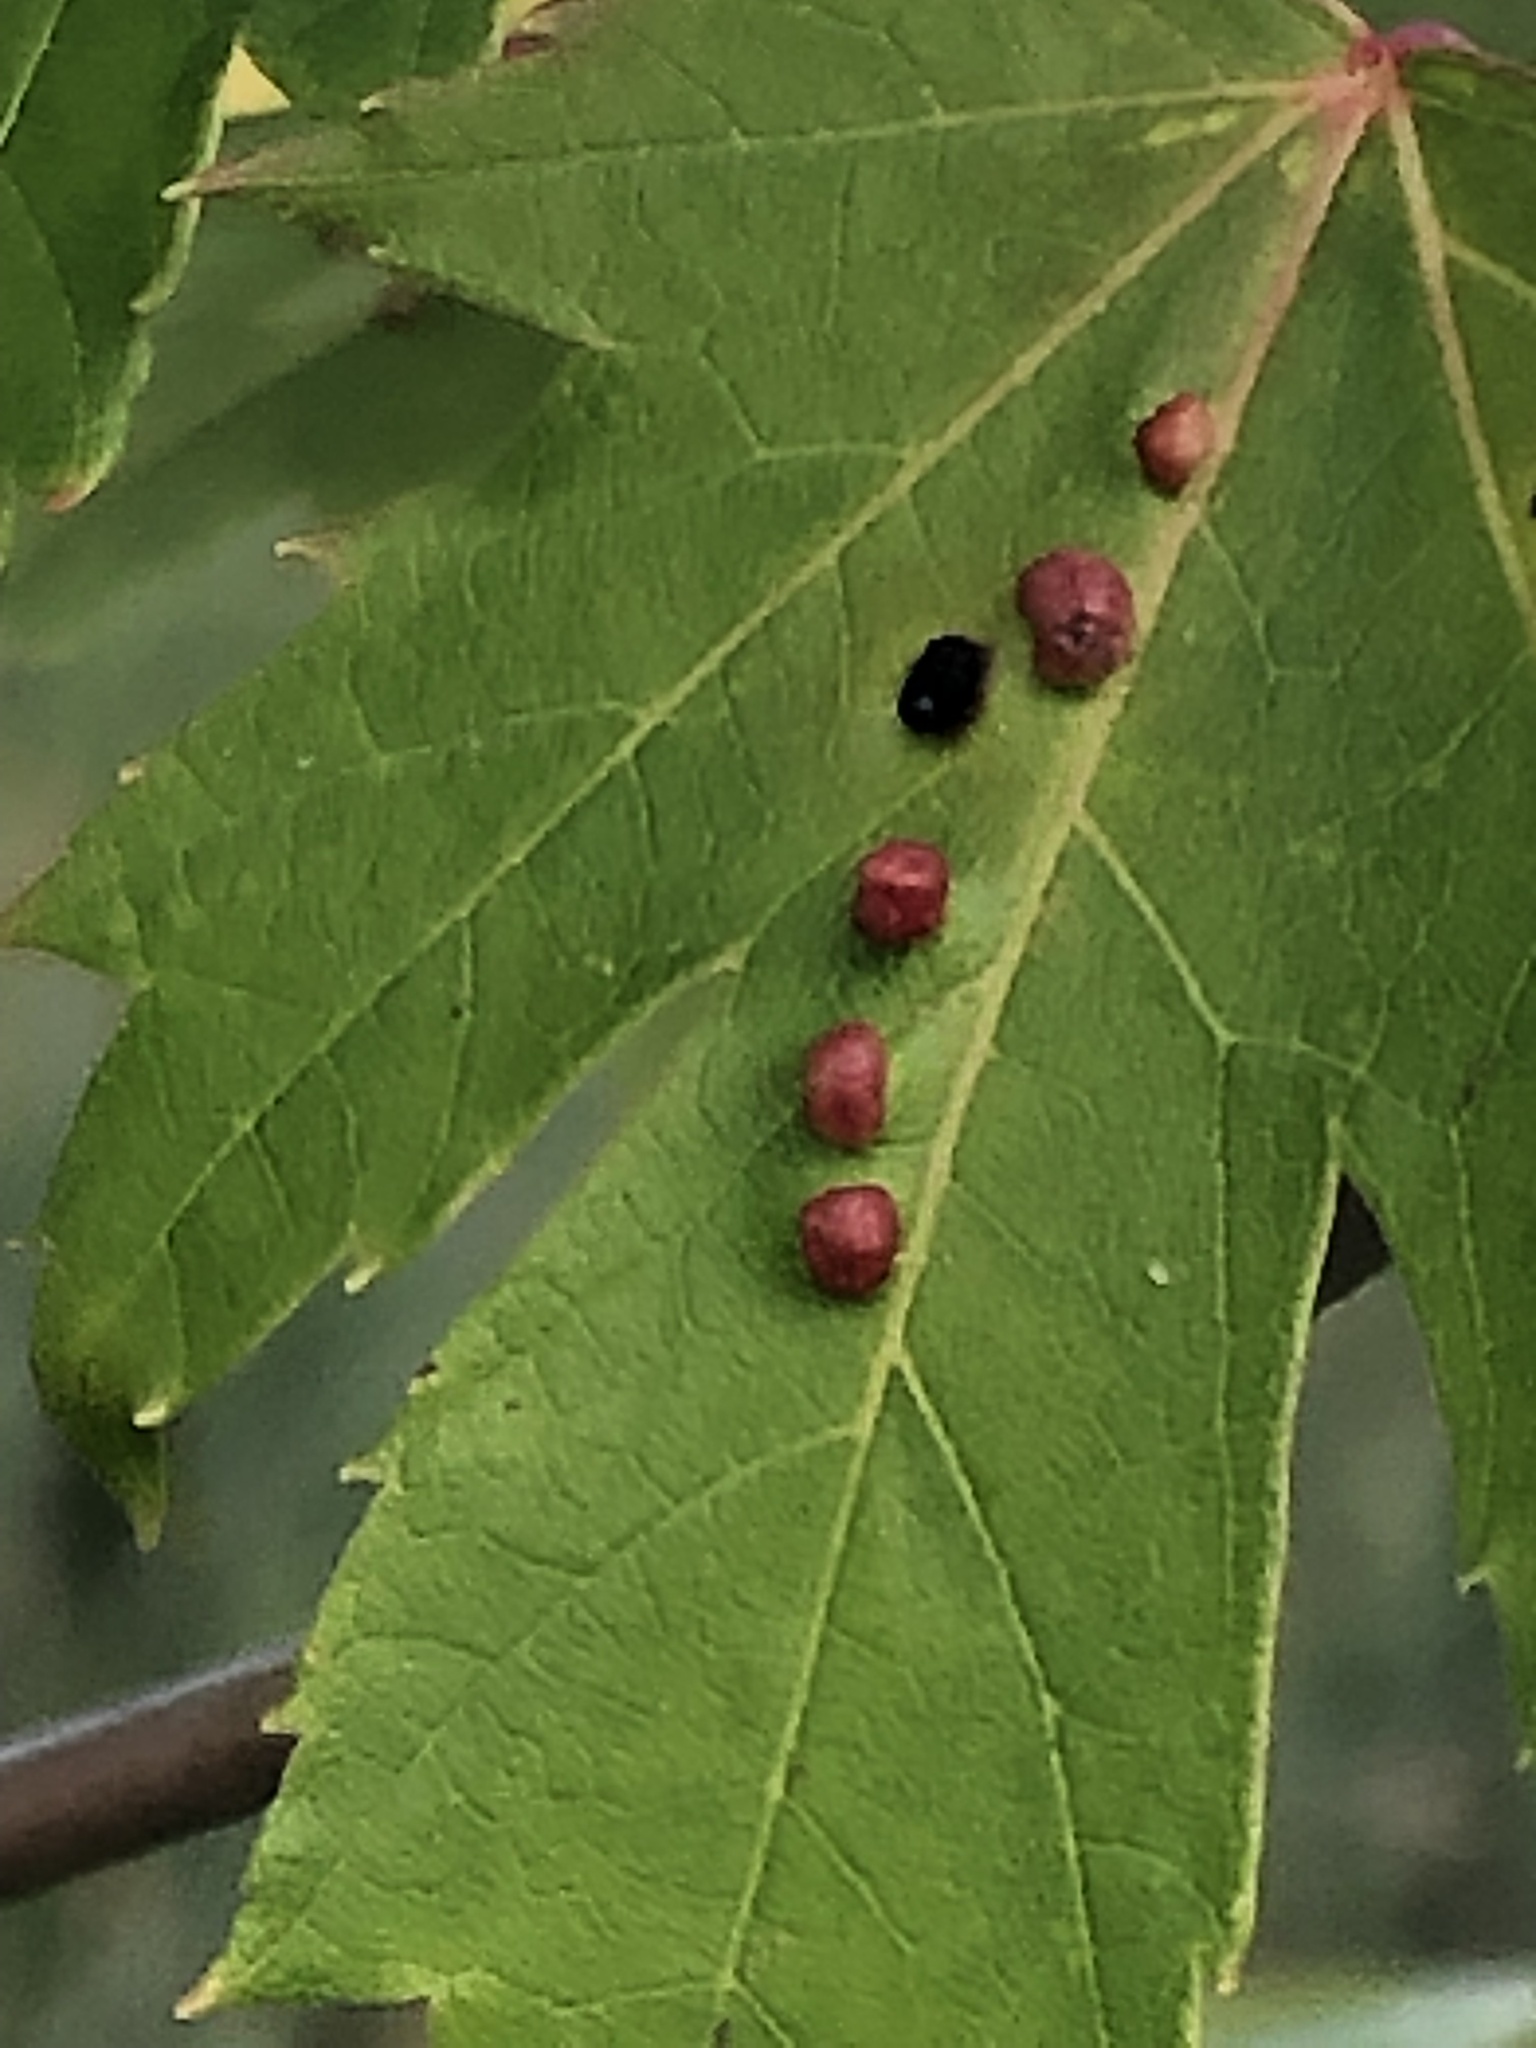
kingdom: Animalia
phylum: Arthropoda
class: Arachnida
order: Trombidiformes
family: Eriophyidae
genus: Vasates
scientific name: Vasates quadripedes
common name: Maple bladder gall mite
